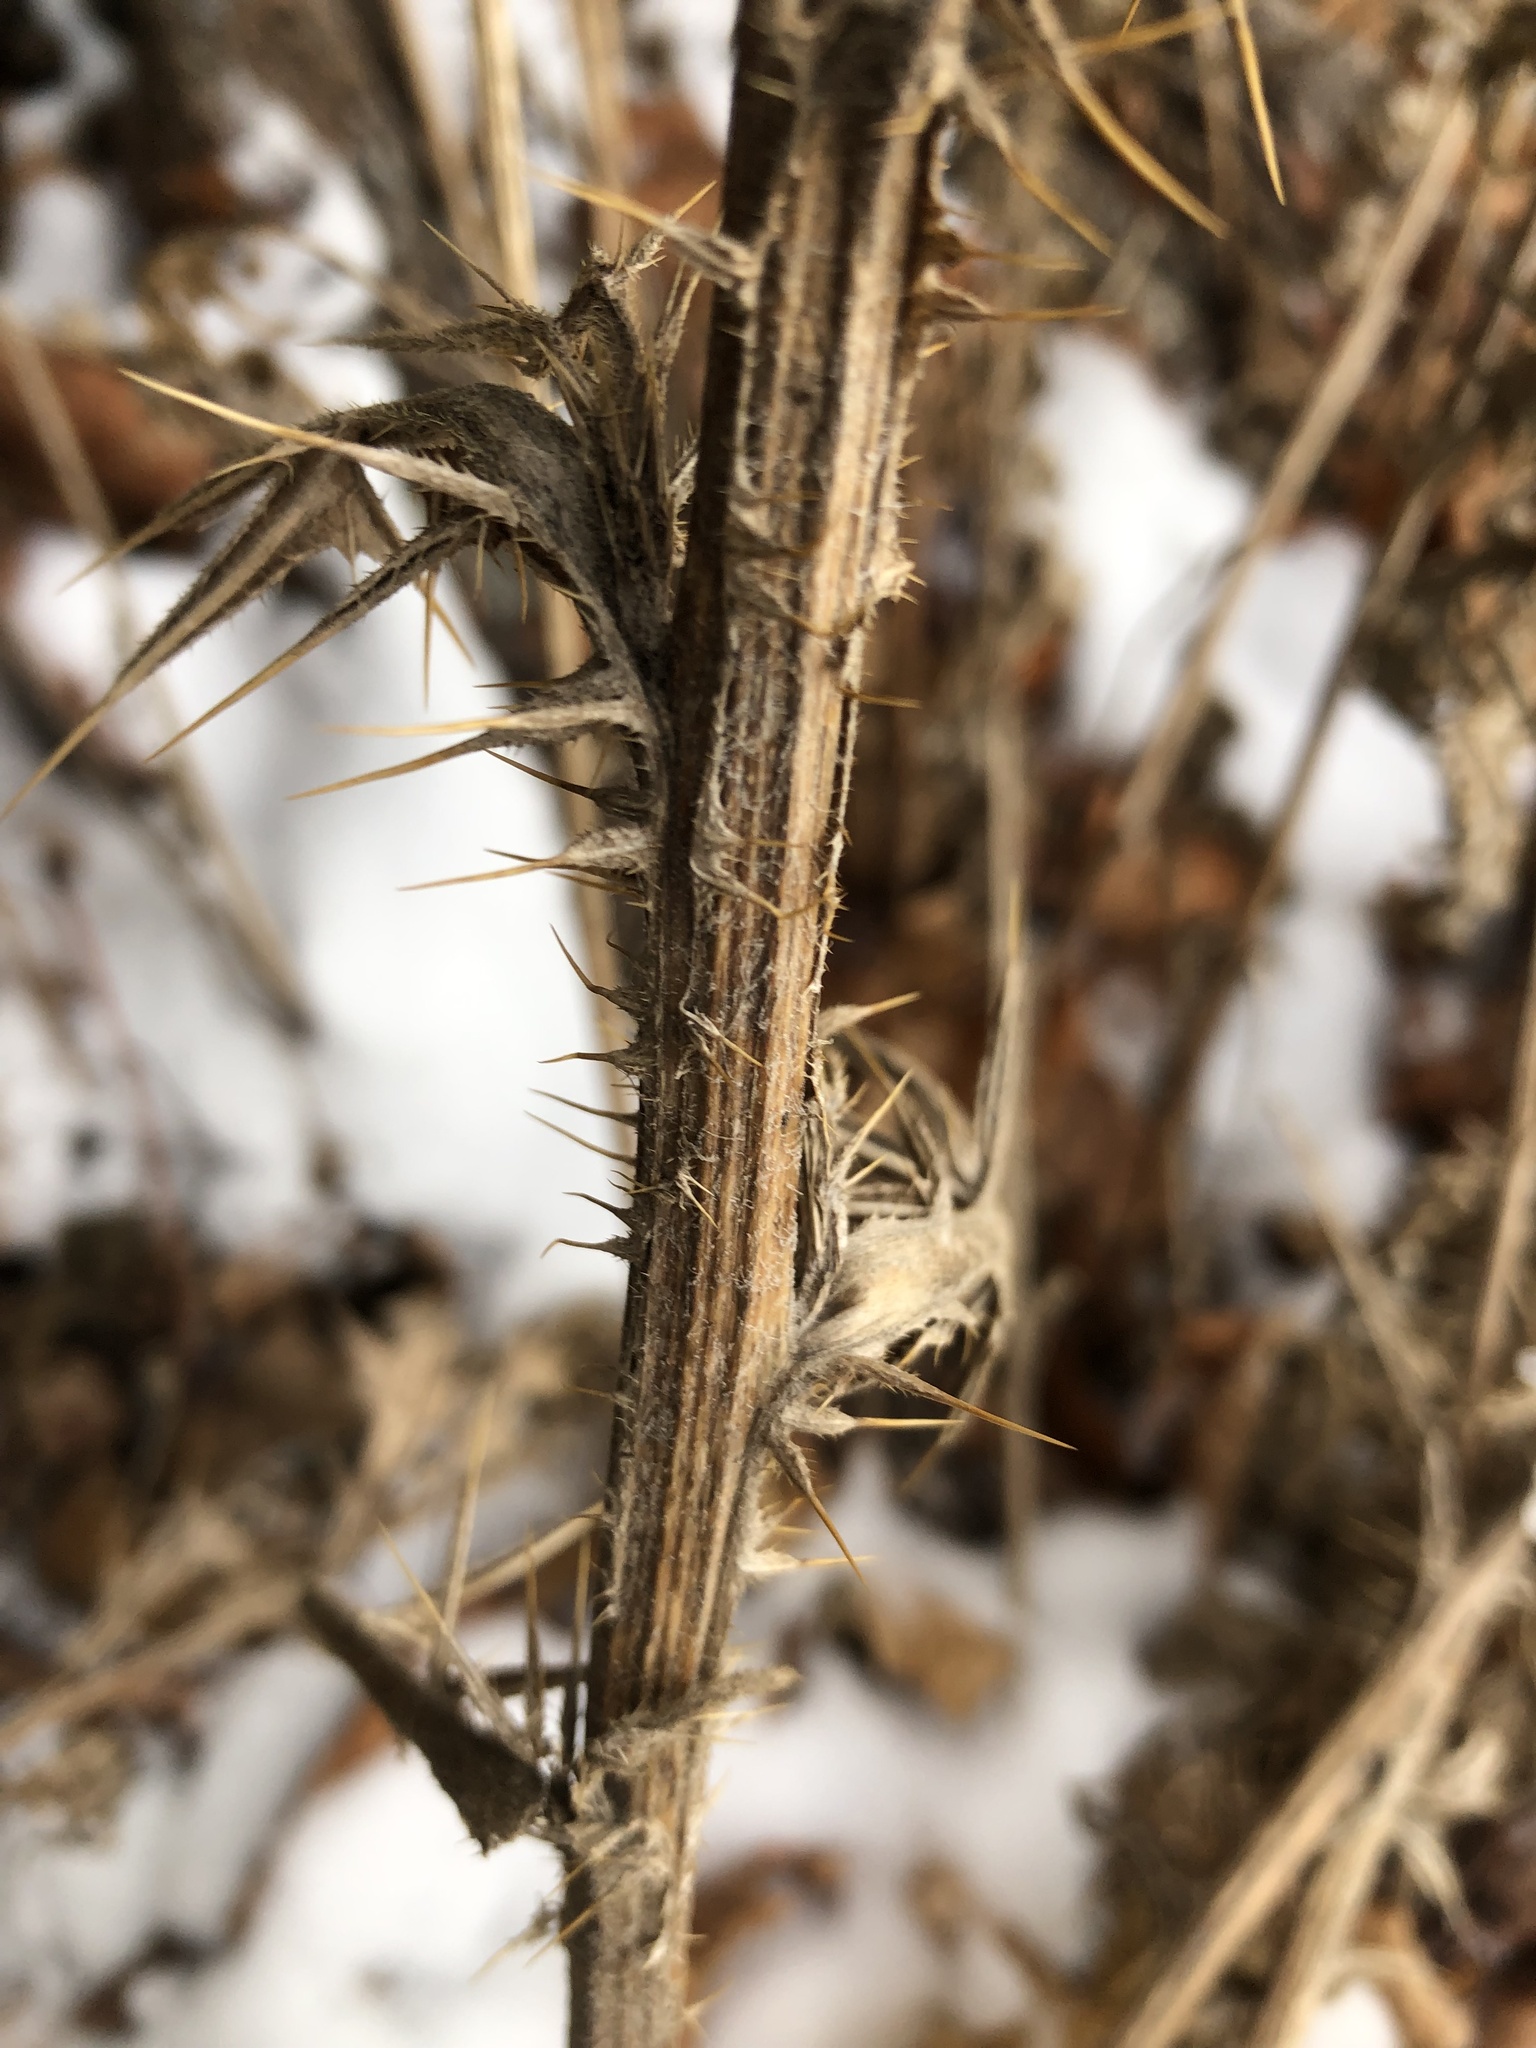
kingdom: Plantae
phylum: Tracheophyta
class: Magnoliopsida
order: Asterales
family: Asteraceae
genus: Cirsium
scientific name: Cirsium vulgare
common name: Bull thistle
